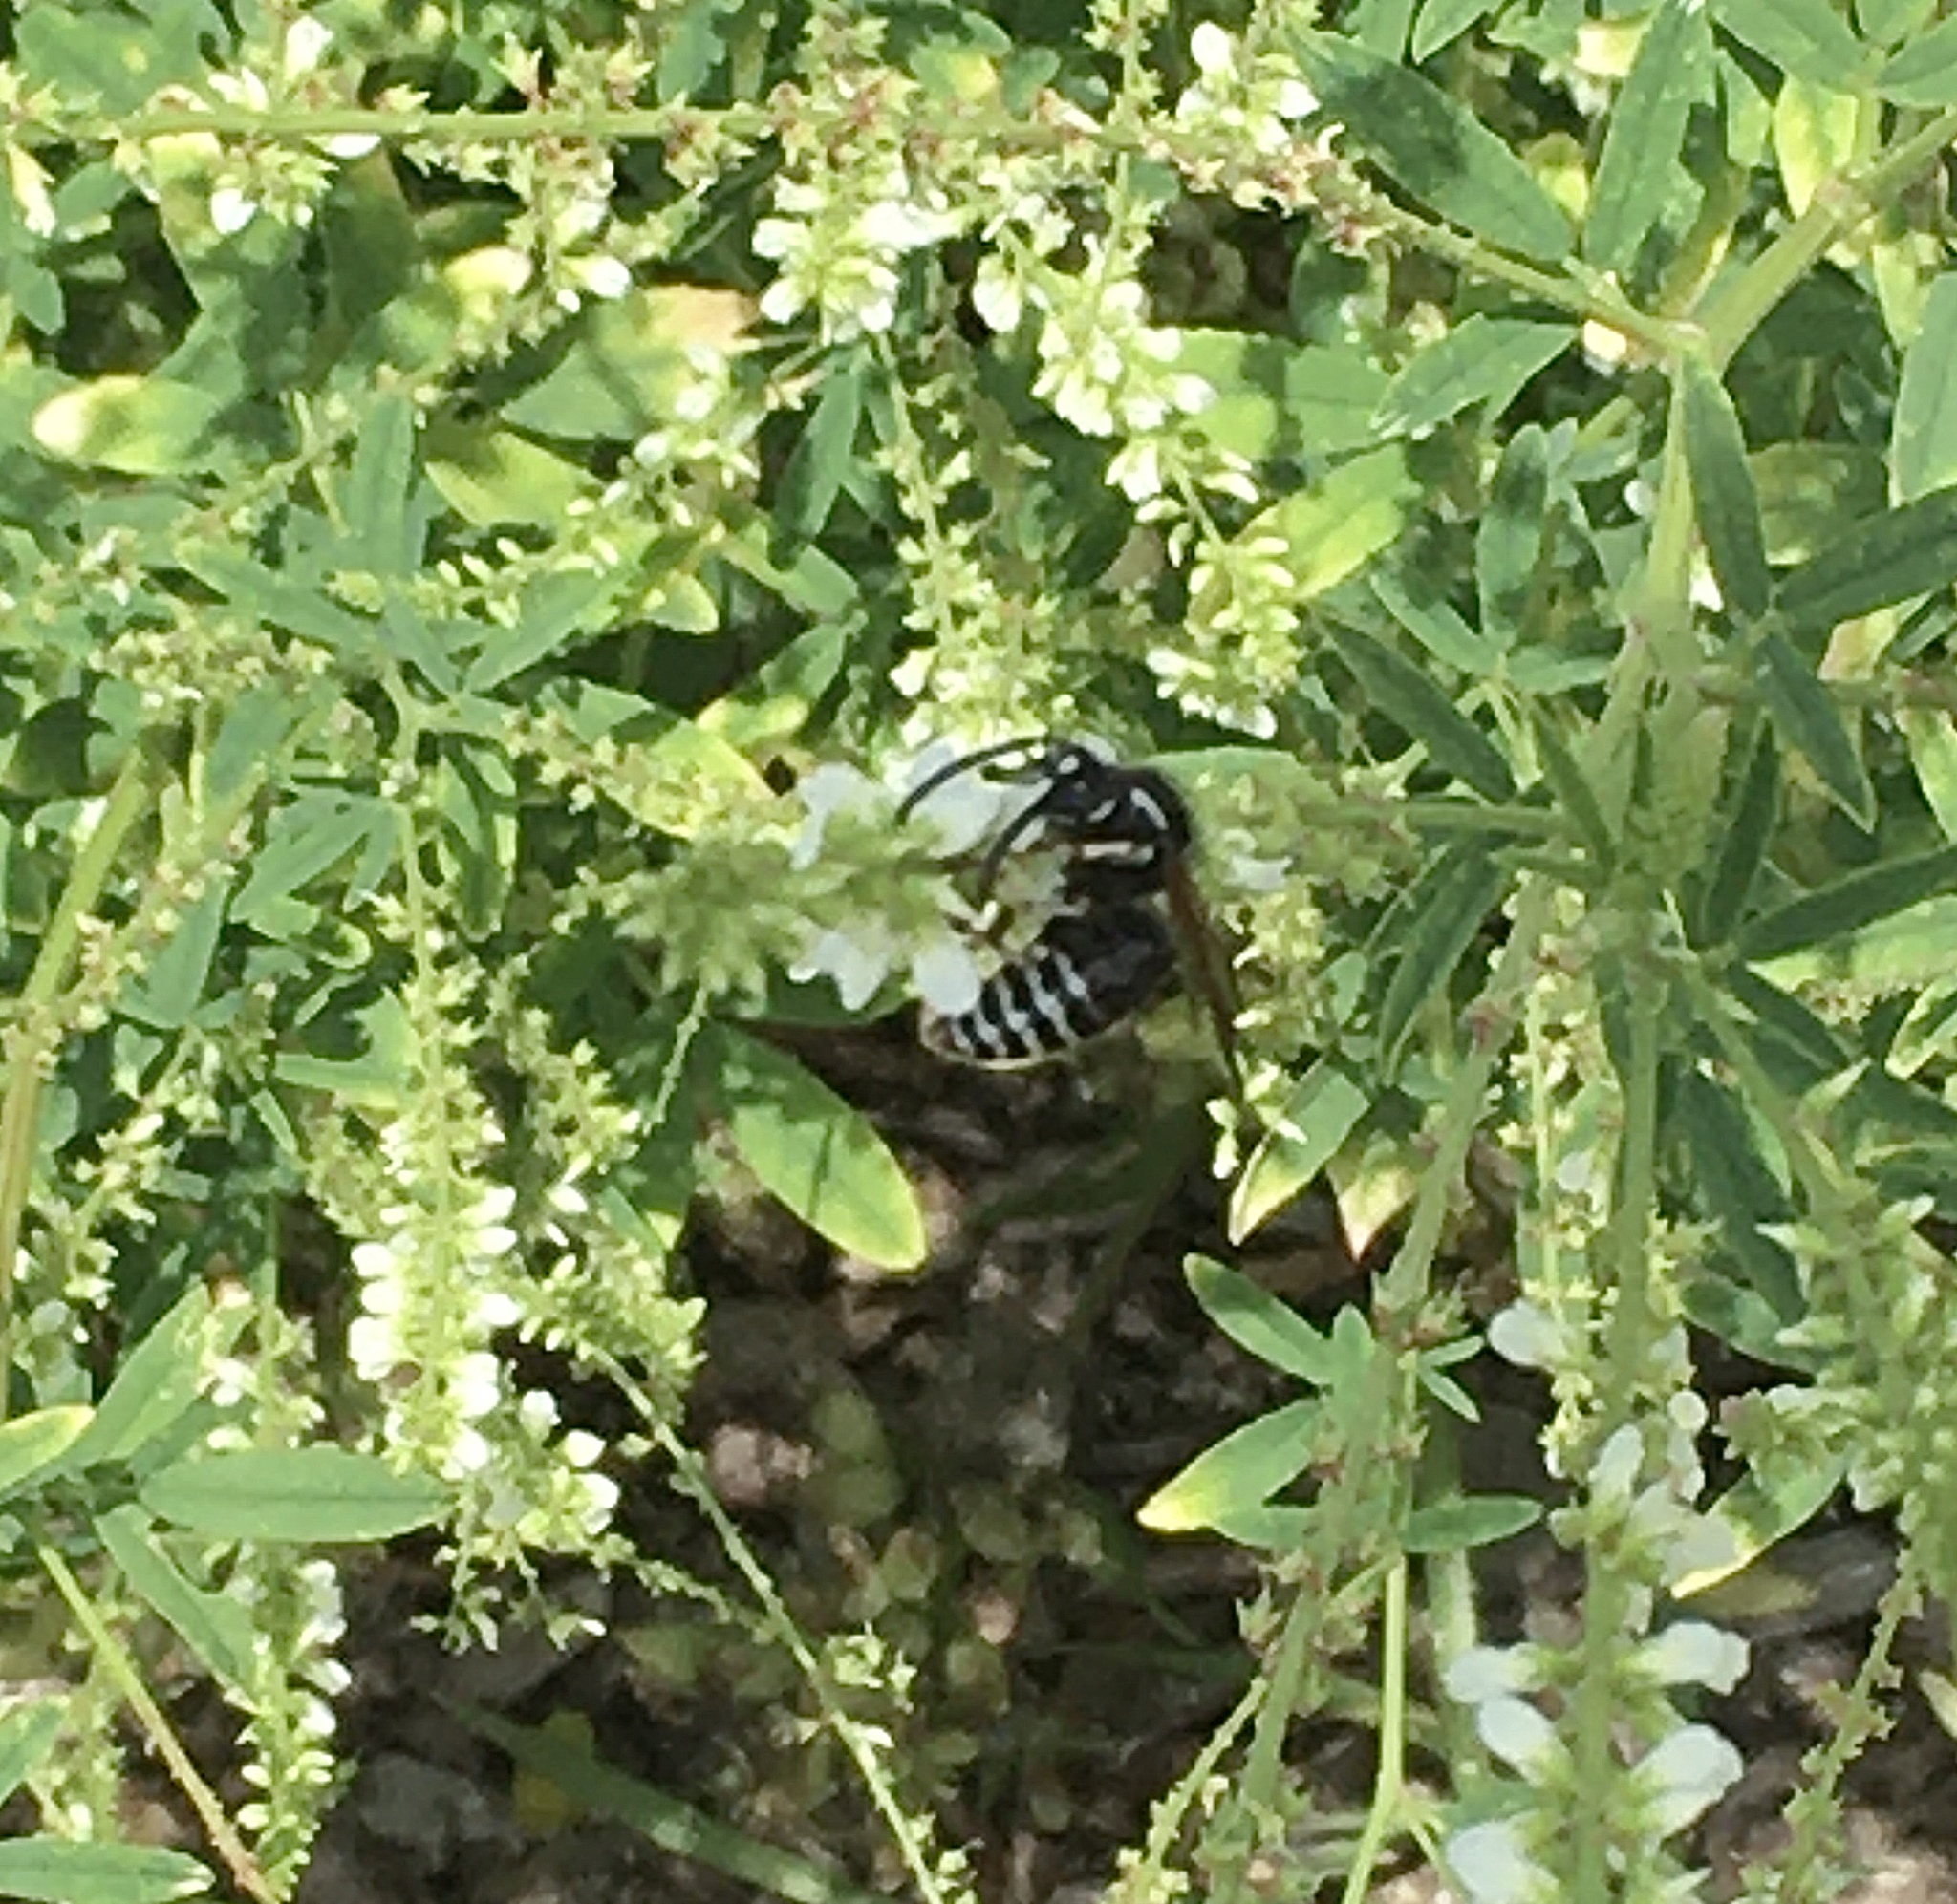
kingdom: Animalia
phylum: Arthropoda
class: Insecta
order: Hymenoptera
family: Vespidae
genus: Dolichovespula
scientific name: Dolichovespula adulterina
